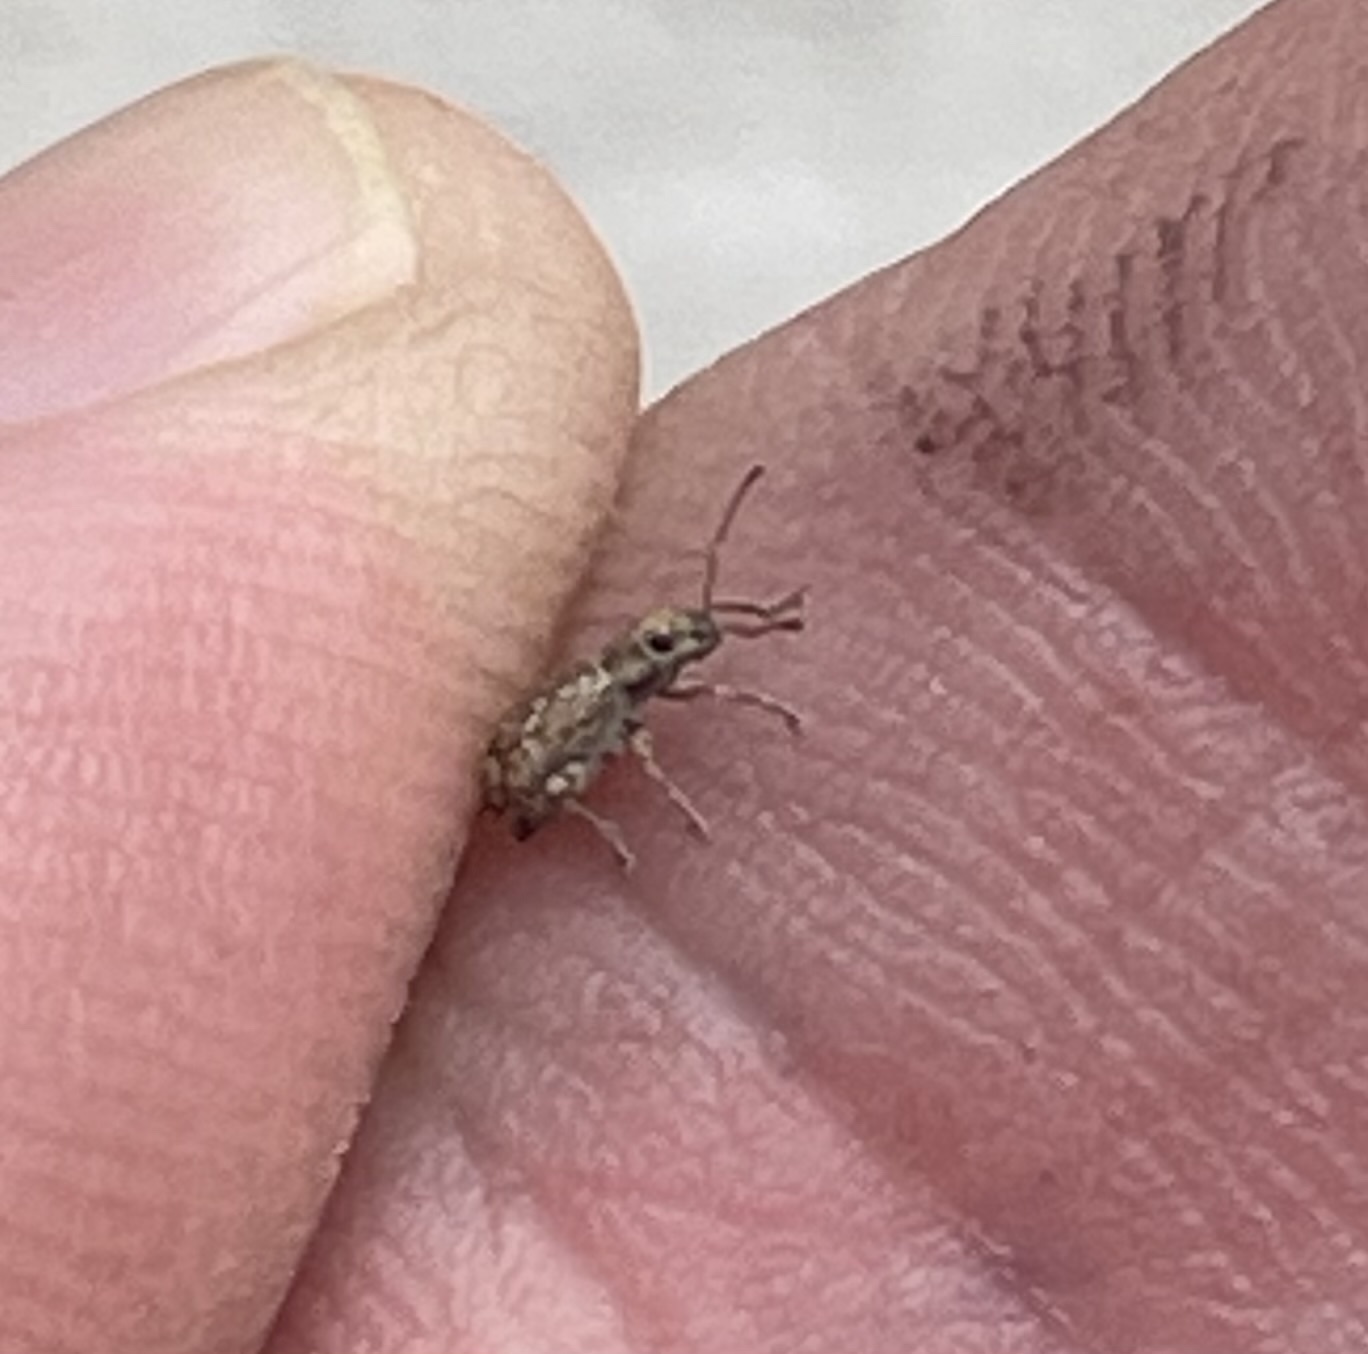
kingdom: Animalia
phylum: Arthropoda
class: Insecta
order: Coleoptera
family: Curculionidae
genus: Pseudoedophrys
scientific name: Pseudoedophrys hilleri
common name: Weevil
